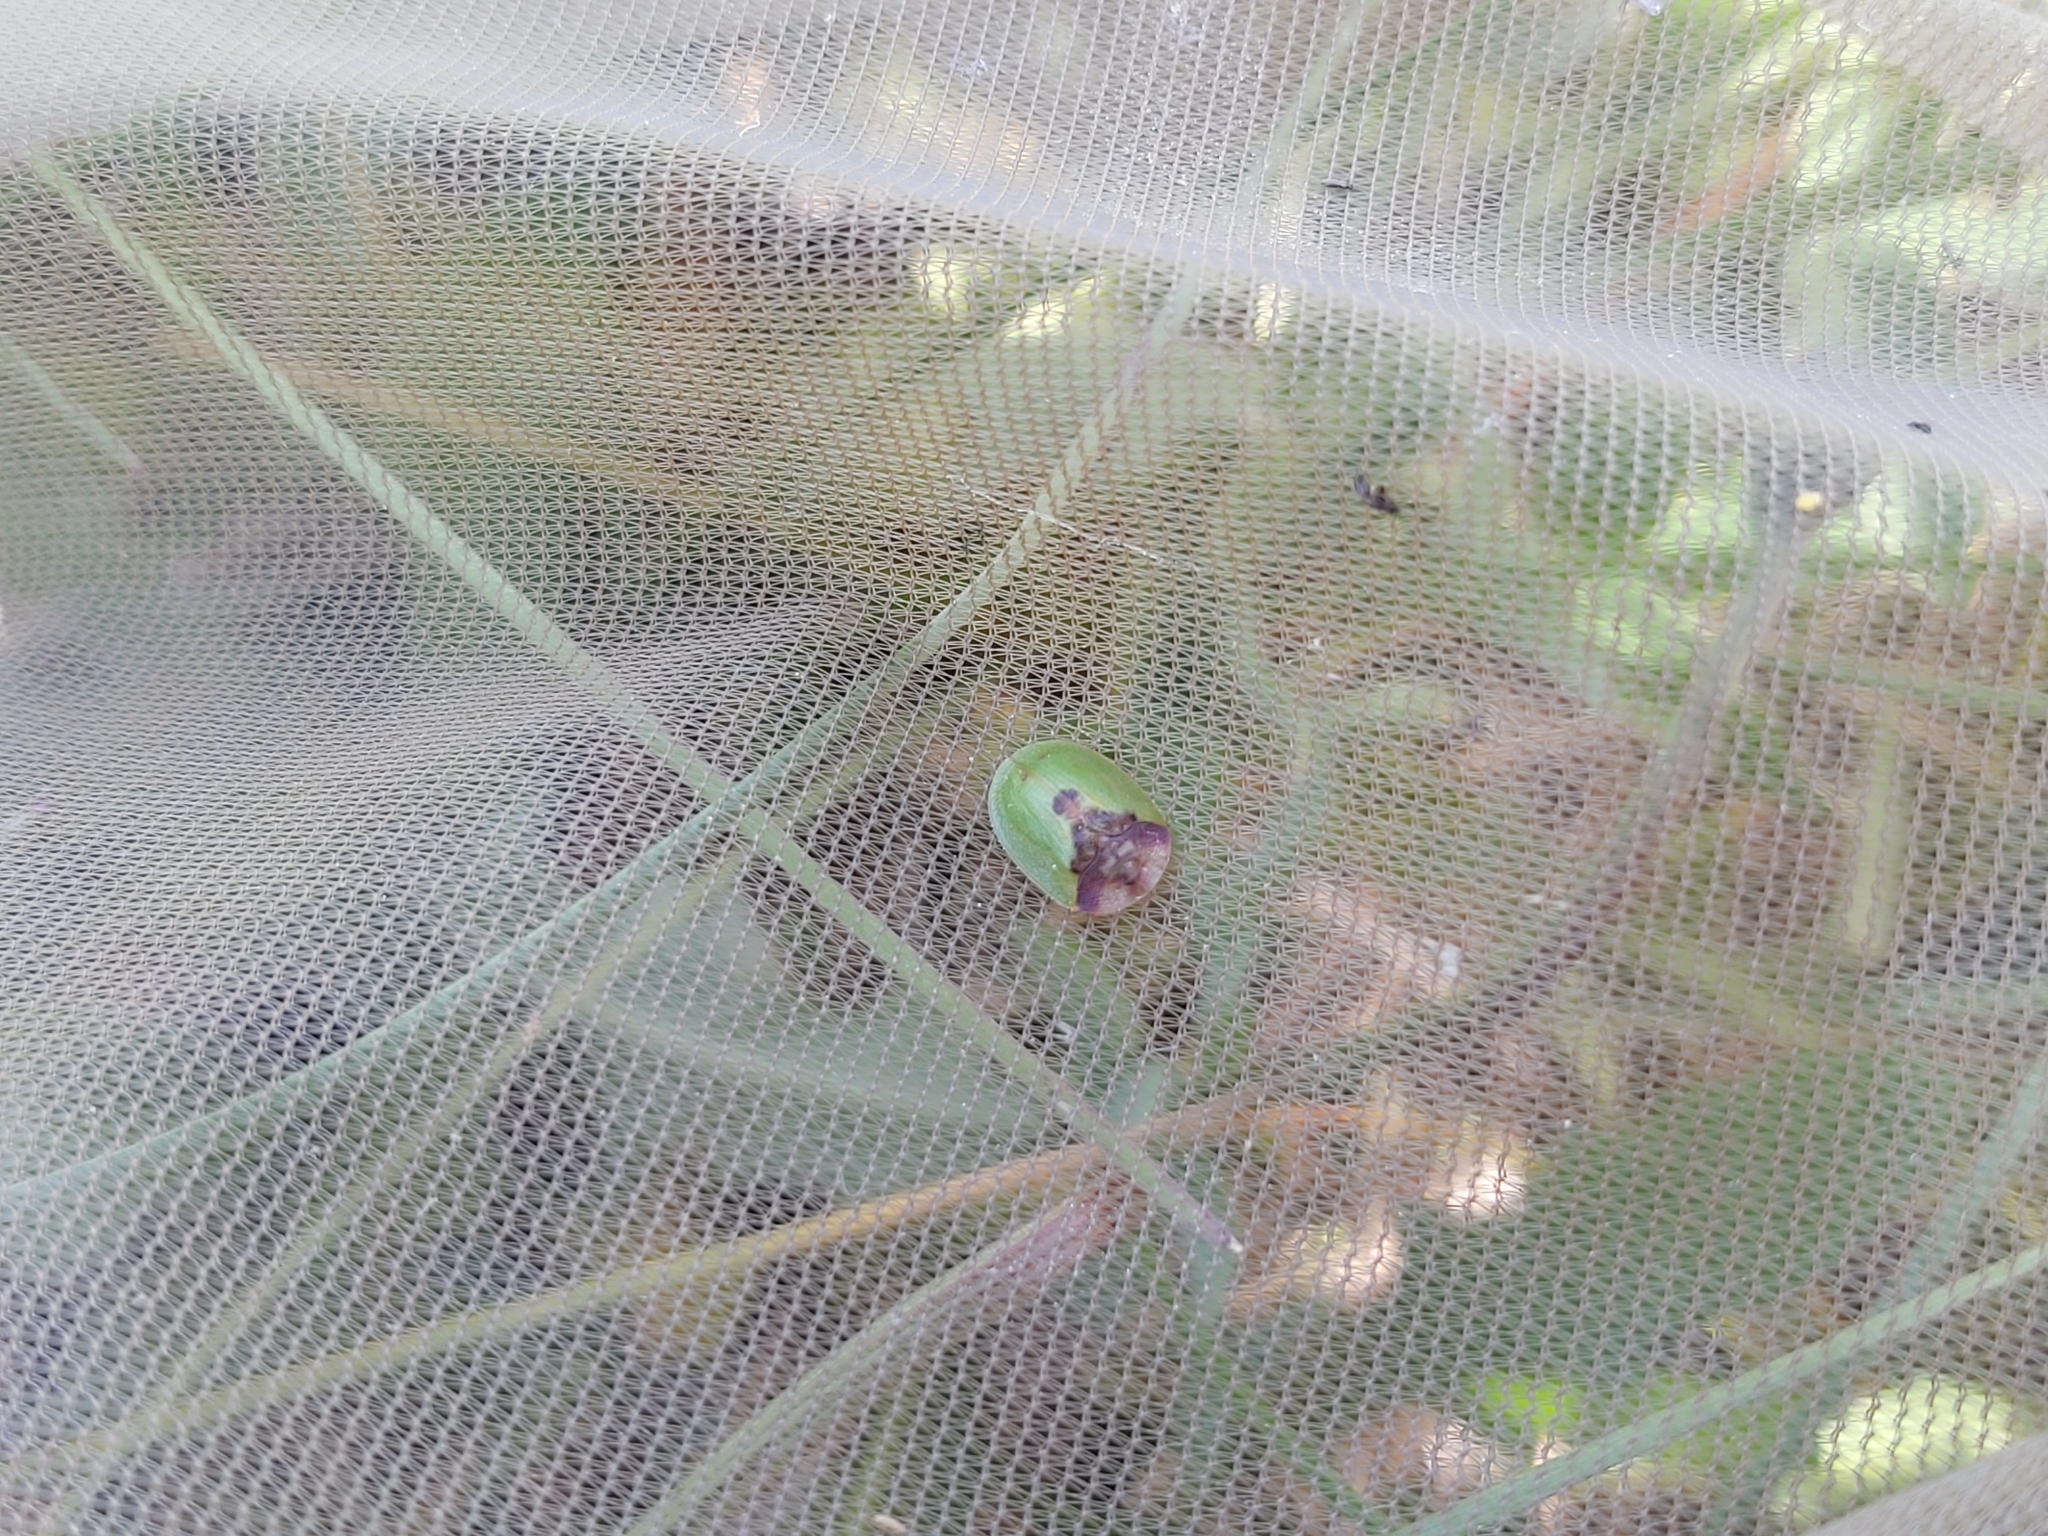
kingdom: Animalia
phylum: Arthropoda
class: Insecta
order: Coleoptera
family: Chrysomelidae
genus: Cassida
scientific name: Cassida panzeri
